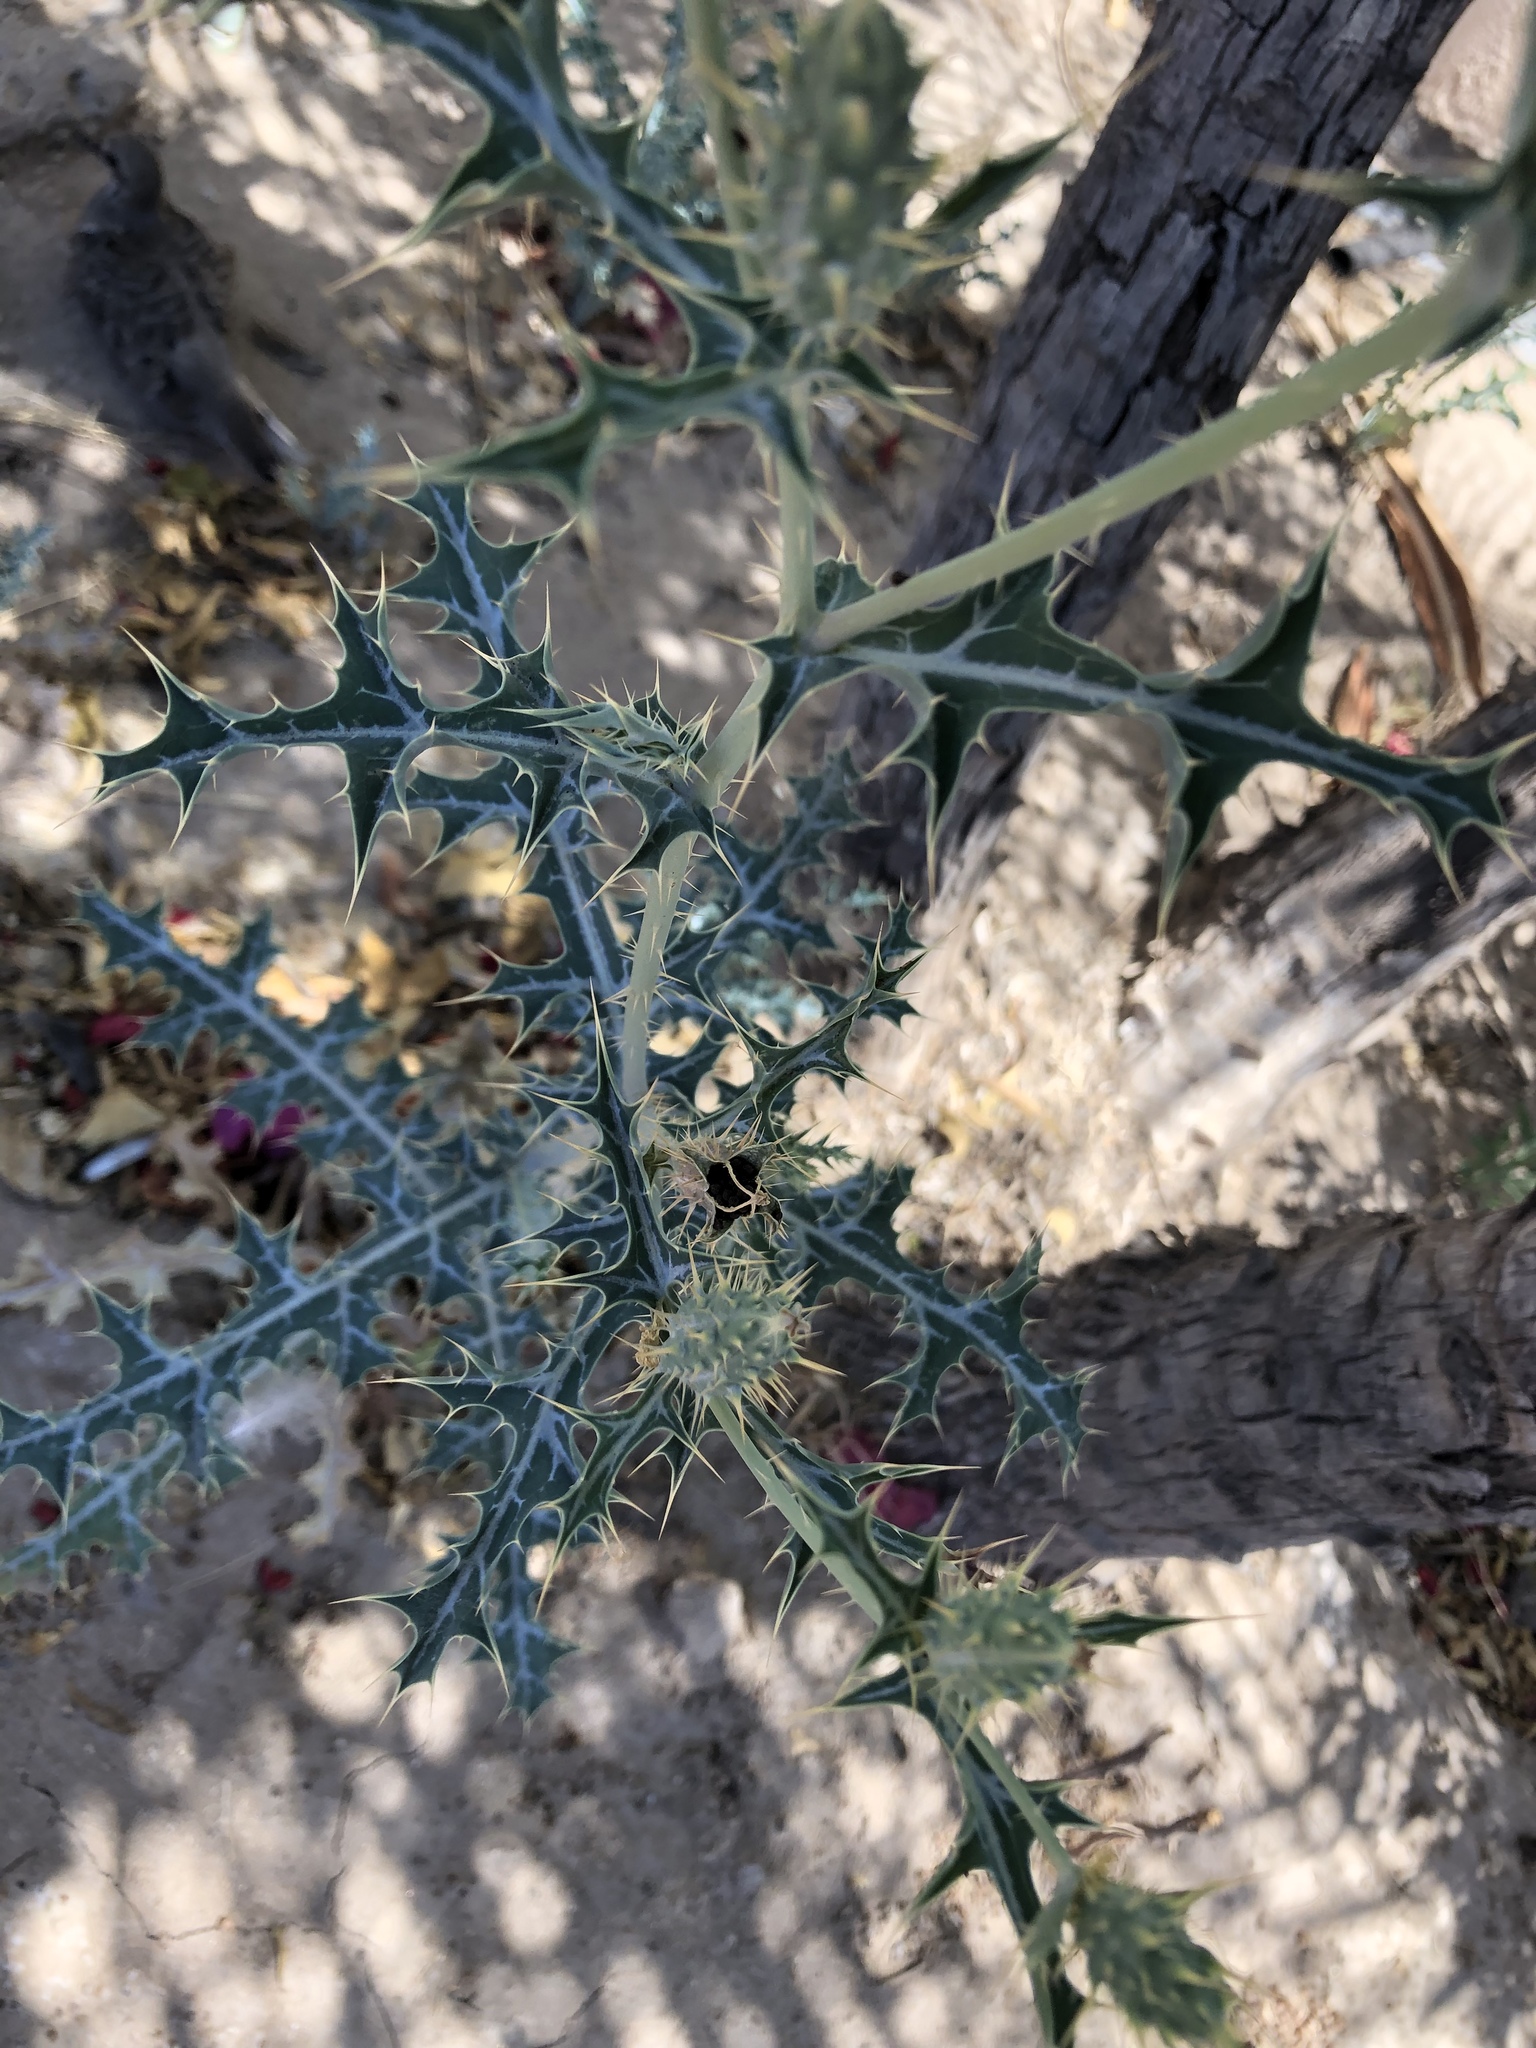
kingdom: Plantae
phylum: Tracheophyta
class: Magnoliopsida
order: Ranunculales
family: Papaveraceae
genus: Argemone
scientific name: Argemone ochroleuca
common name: White-flower mexican-poppy
